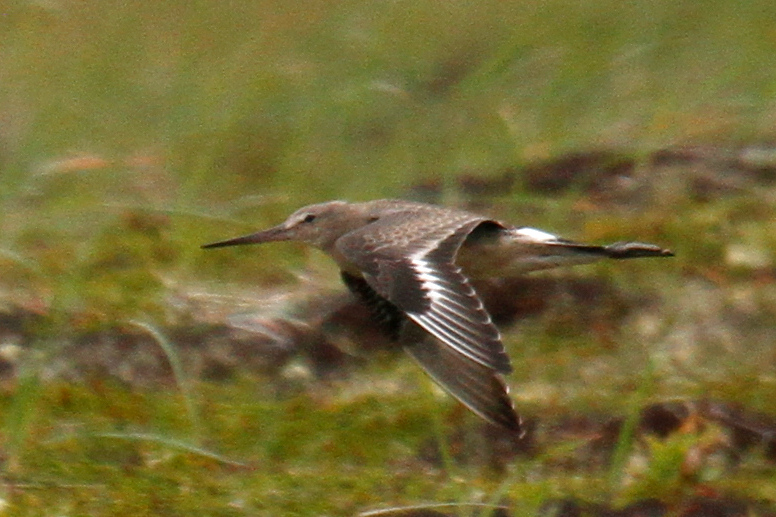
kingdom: Animalia
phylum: Chordata
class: Aves
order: Charadriiformes
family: Scolopacidae
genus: Limosa
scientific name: Limosa haemastica
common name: Hudsonian godwit
